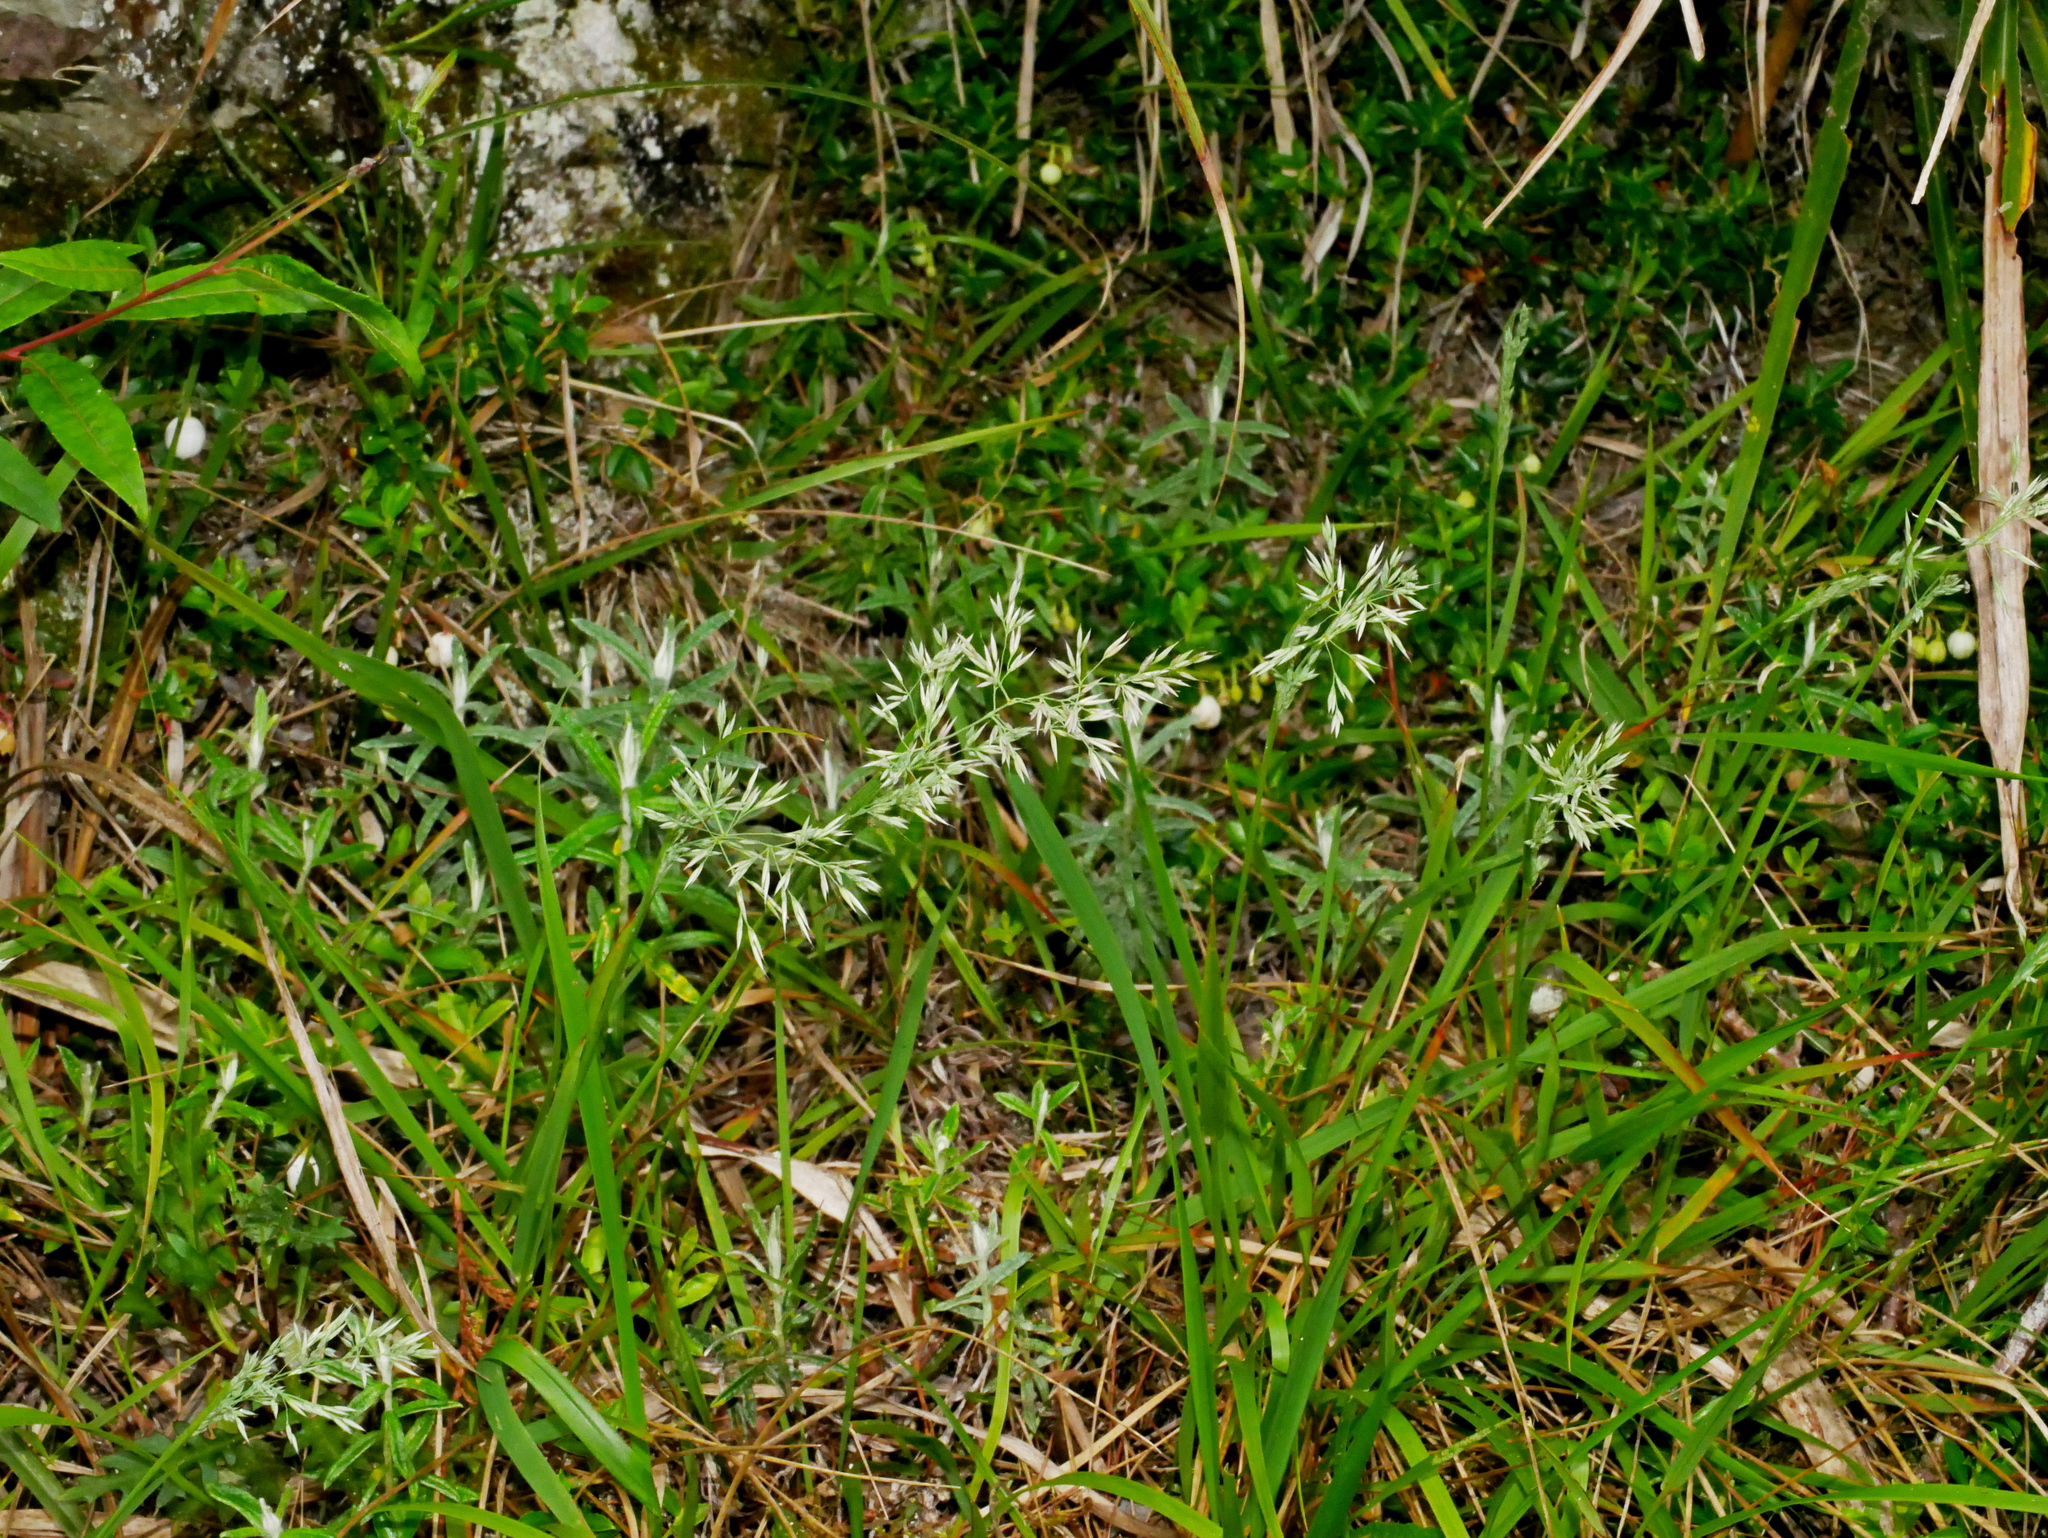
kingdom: Plantae
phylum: Tracheophyta
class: Liliopsida
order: Poales
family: Poaceae
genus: Calamagrostis
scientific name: Calamagrostis arundinacea
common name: Metskastik
